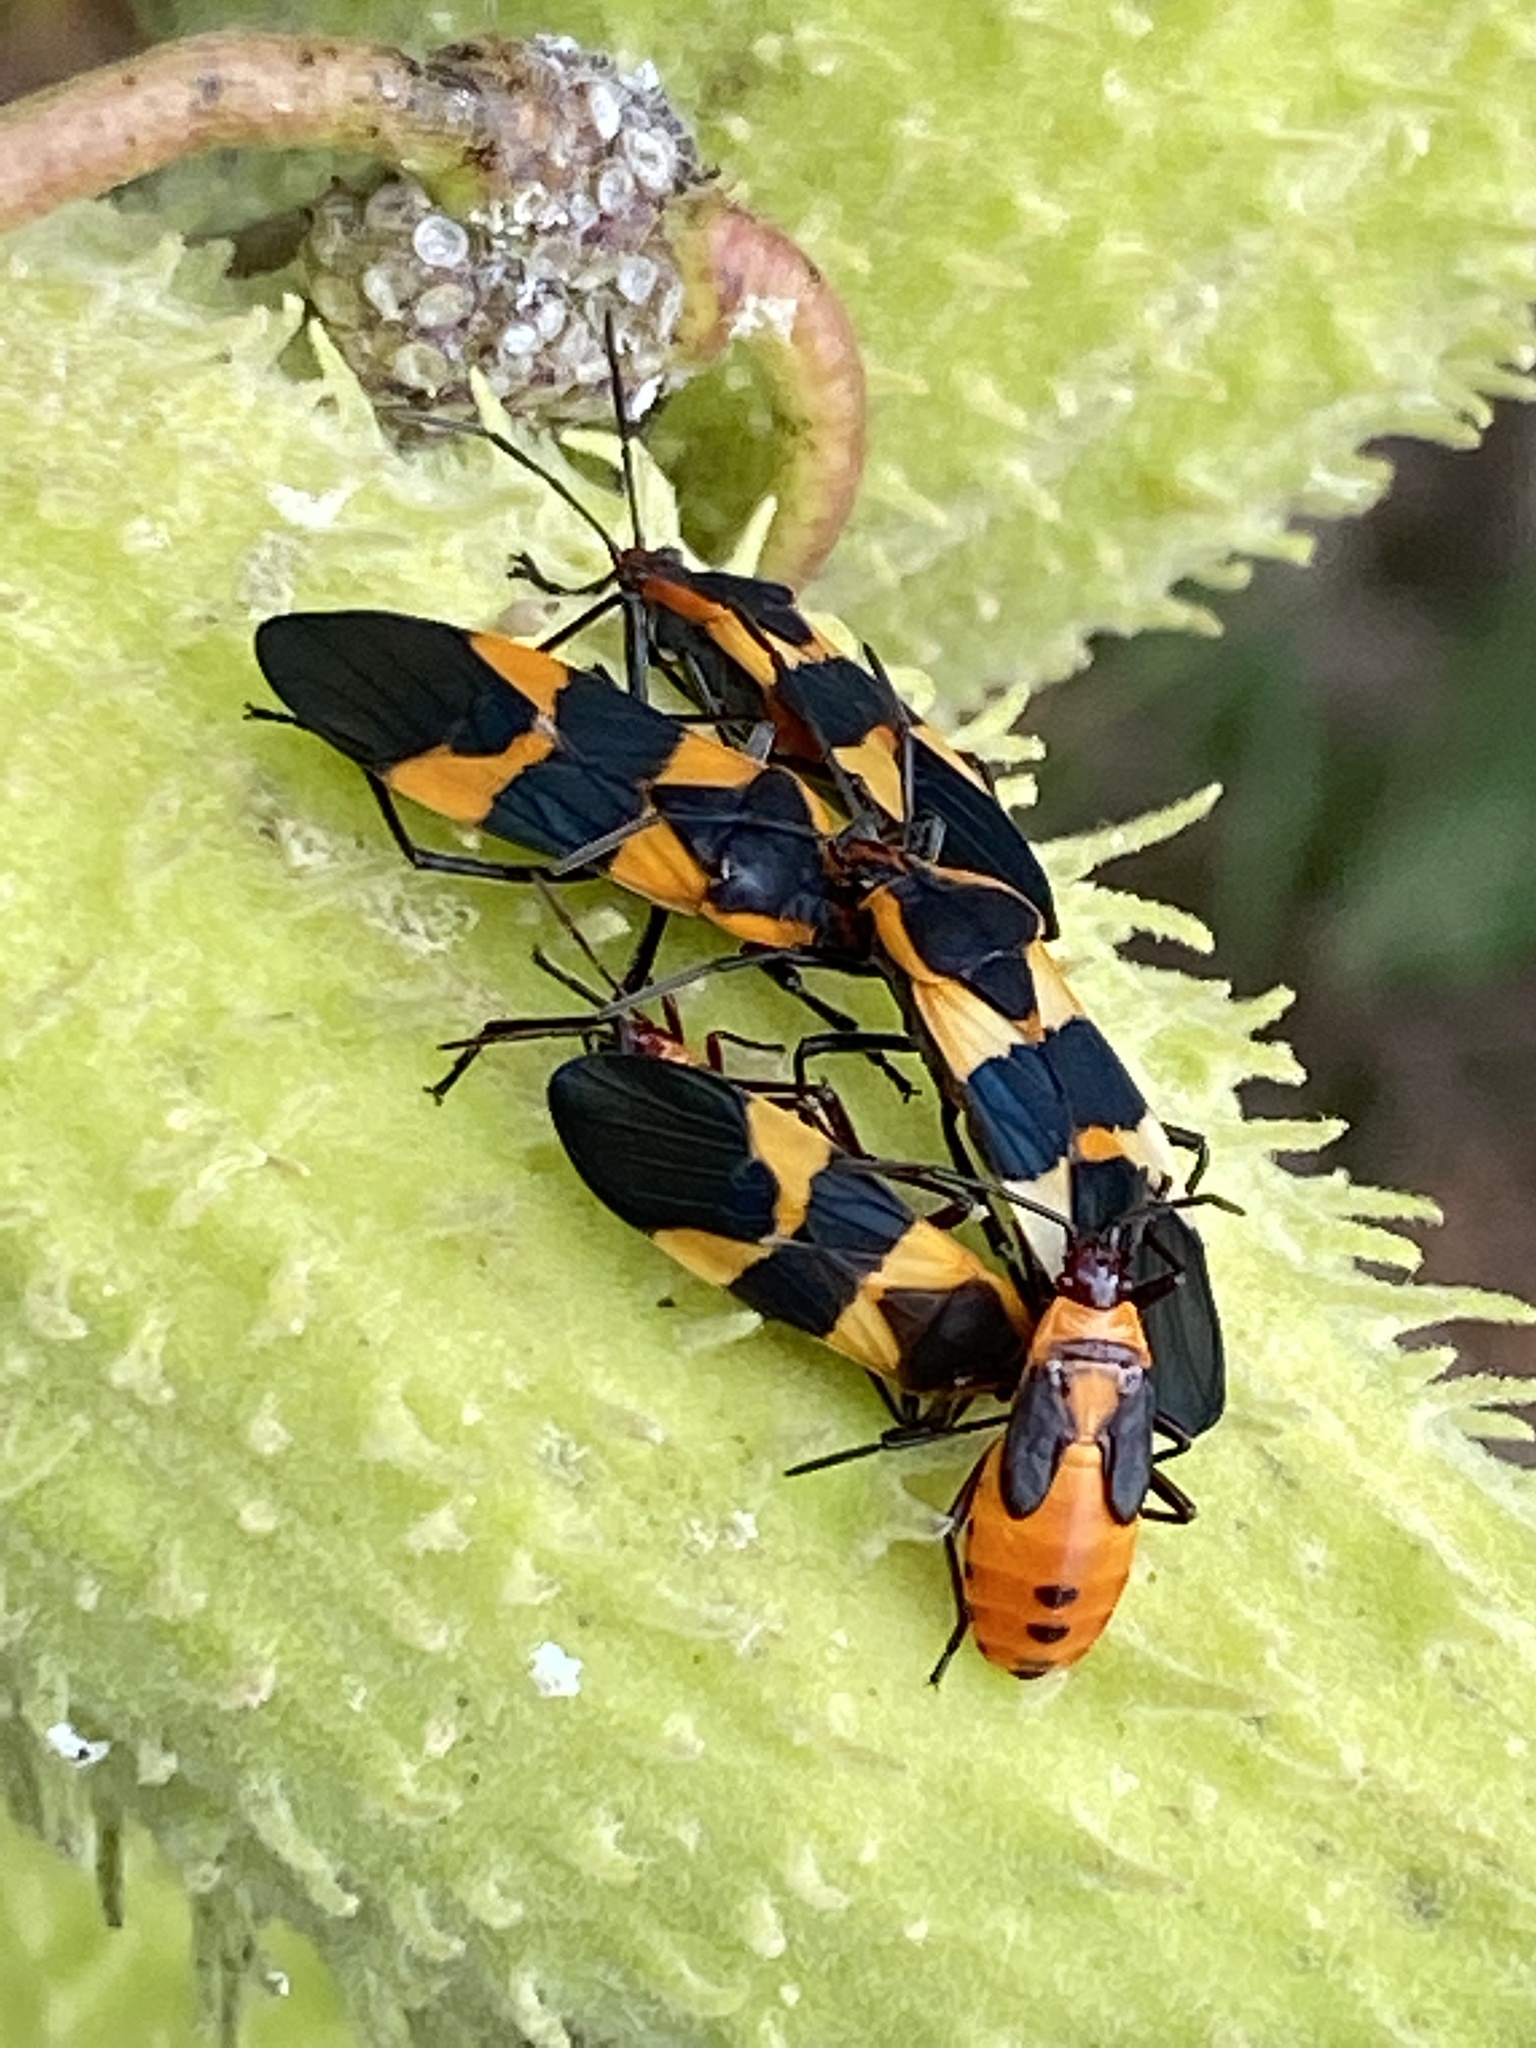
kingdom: Animalia
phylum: Arthropoda
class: Insecta
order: Hemiptera
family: Lygaeidae
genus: Oncopeltus
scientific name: Oncopeltus fasciatus
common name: Large milkweed bug
